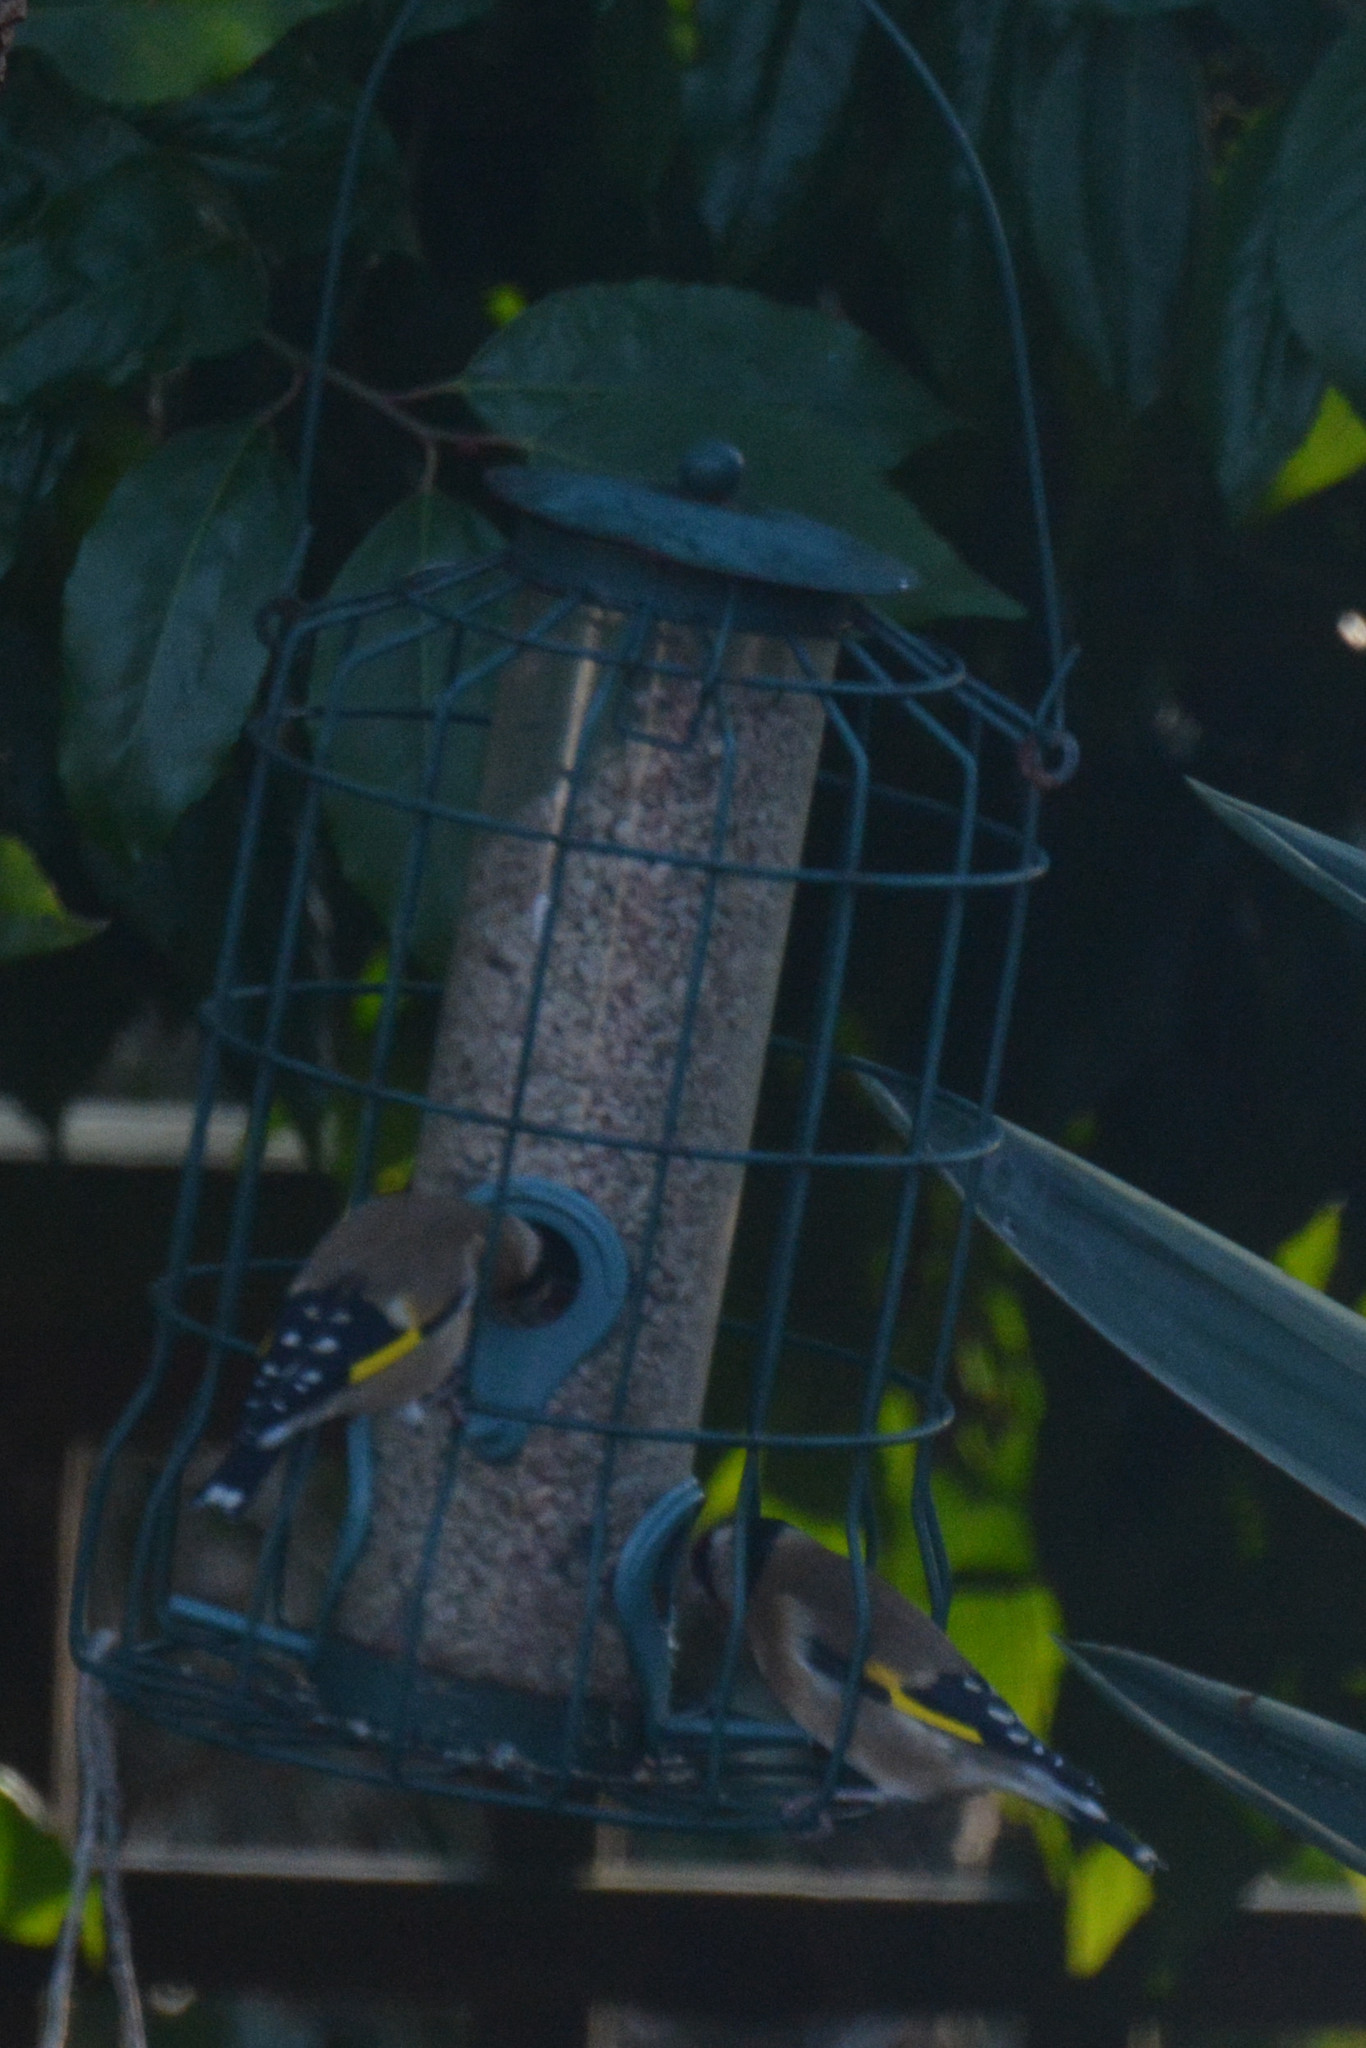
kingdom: Animalia
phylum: Chordata
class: Aves
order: Passeriformes
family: Fringillidae
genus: Carduelis
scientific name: Carduelis carduelis
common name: European goldfinch
